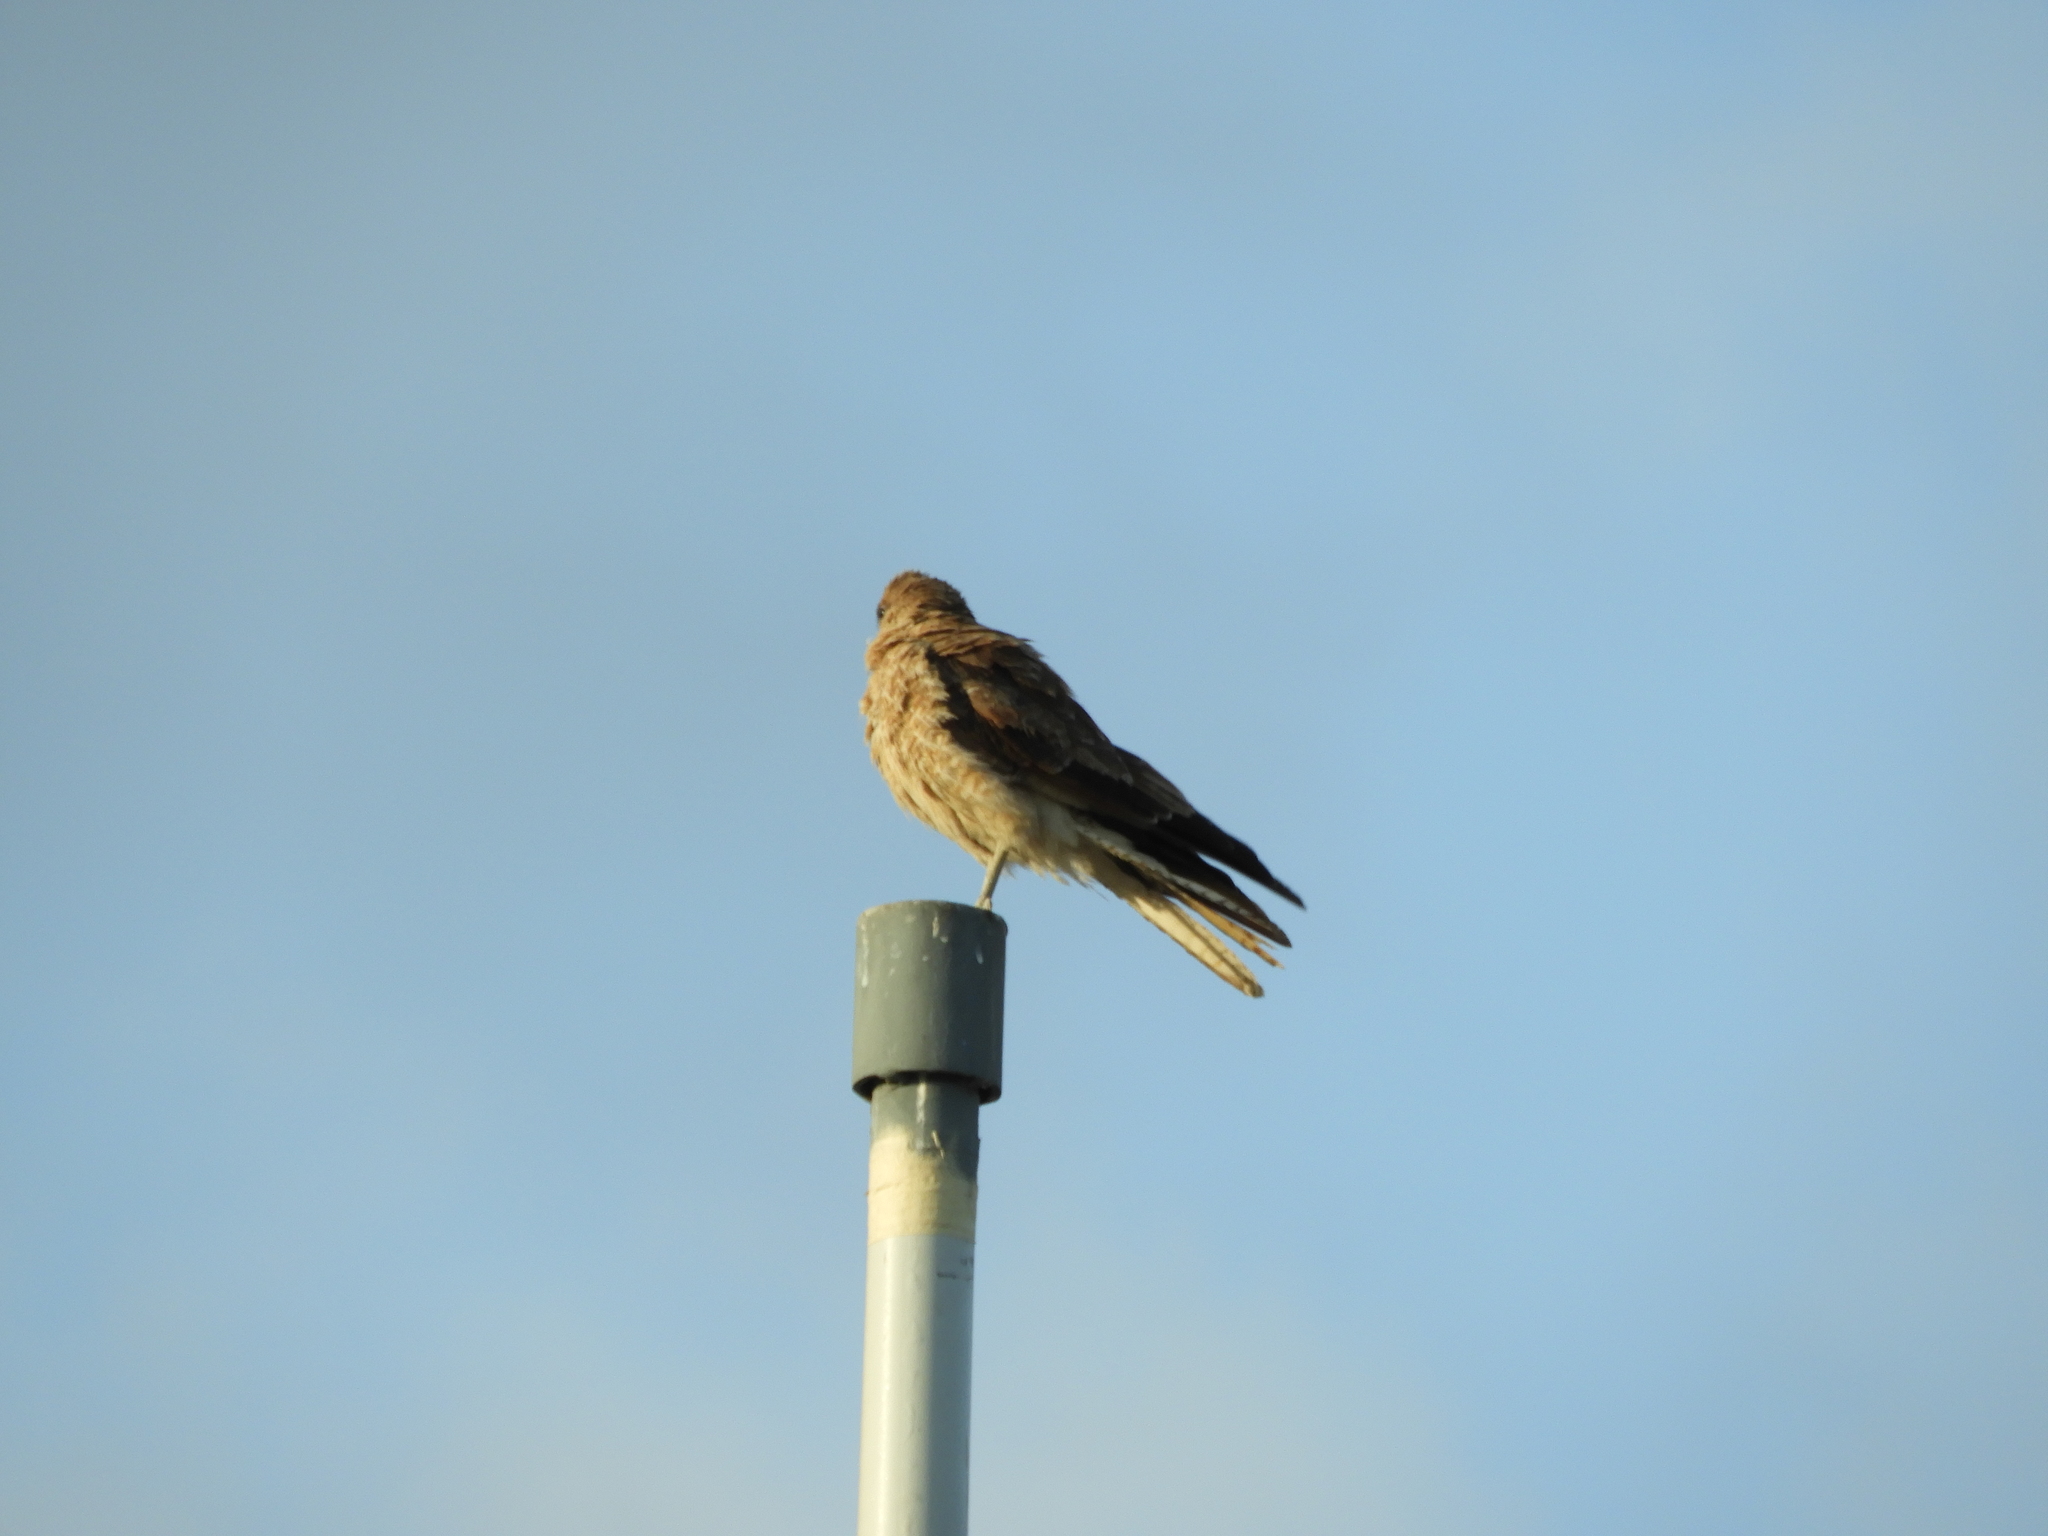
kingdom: Animalia
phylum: Chordata
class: Aves
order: Falconiformes
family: Falconidae
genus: Daptrius
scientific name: Daptrius
